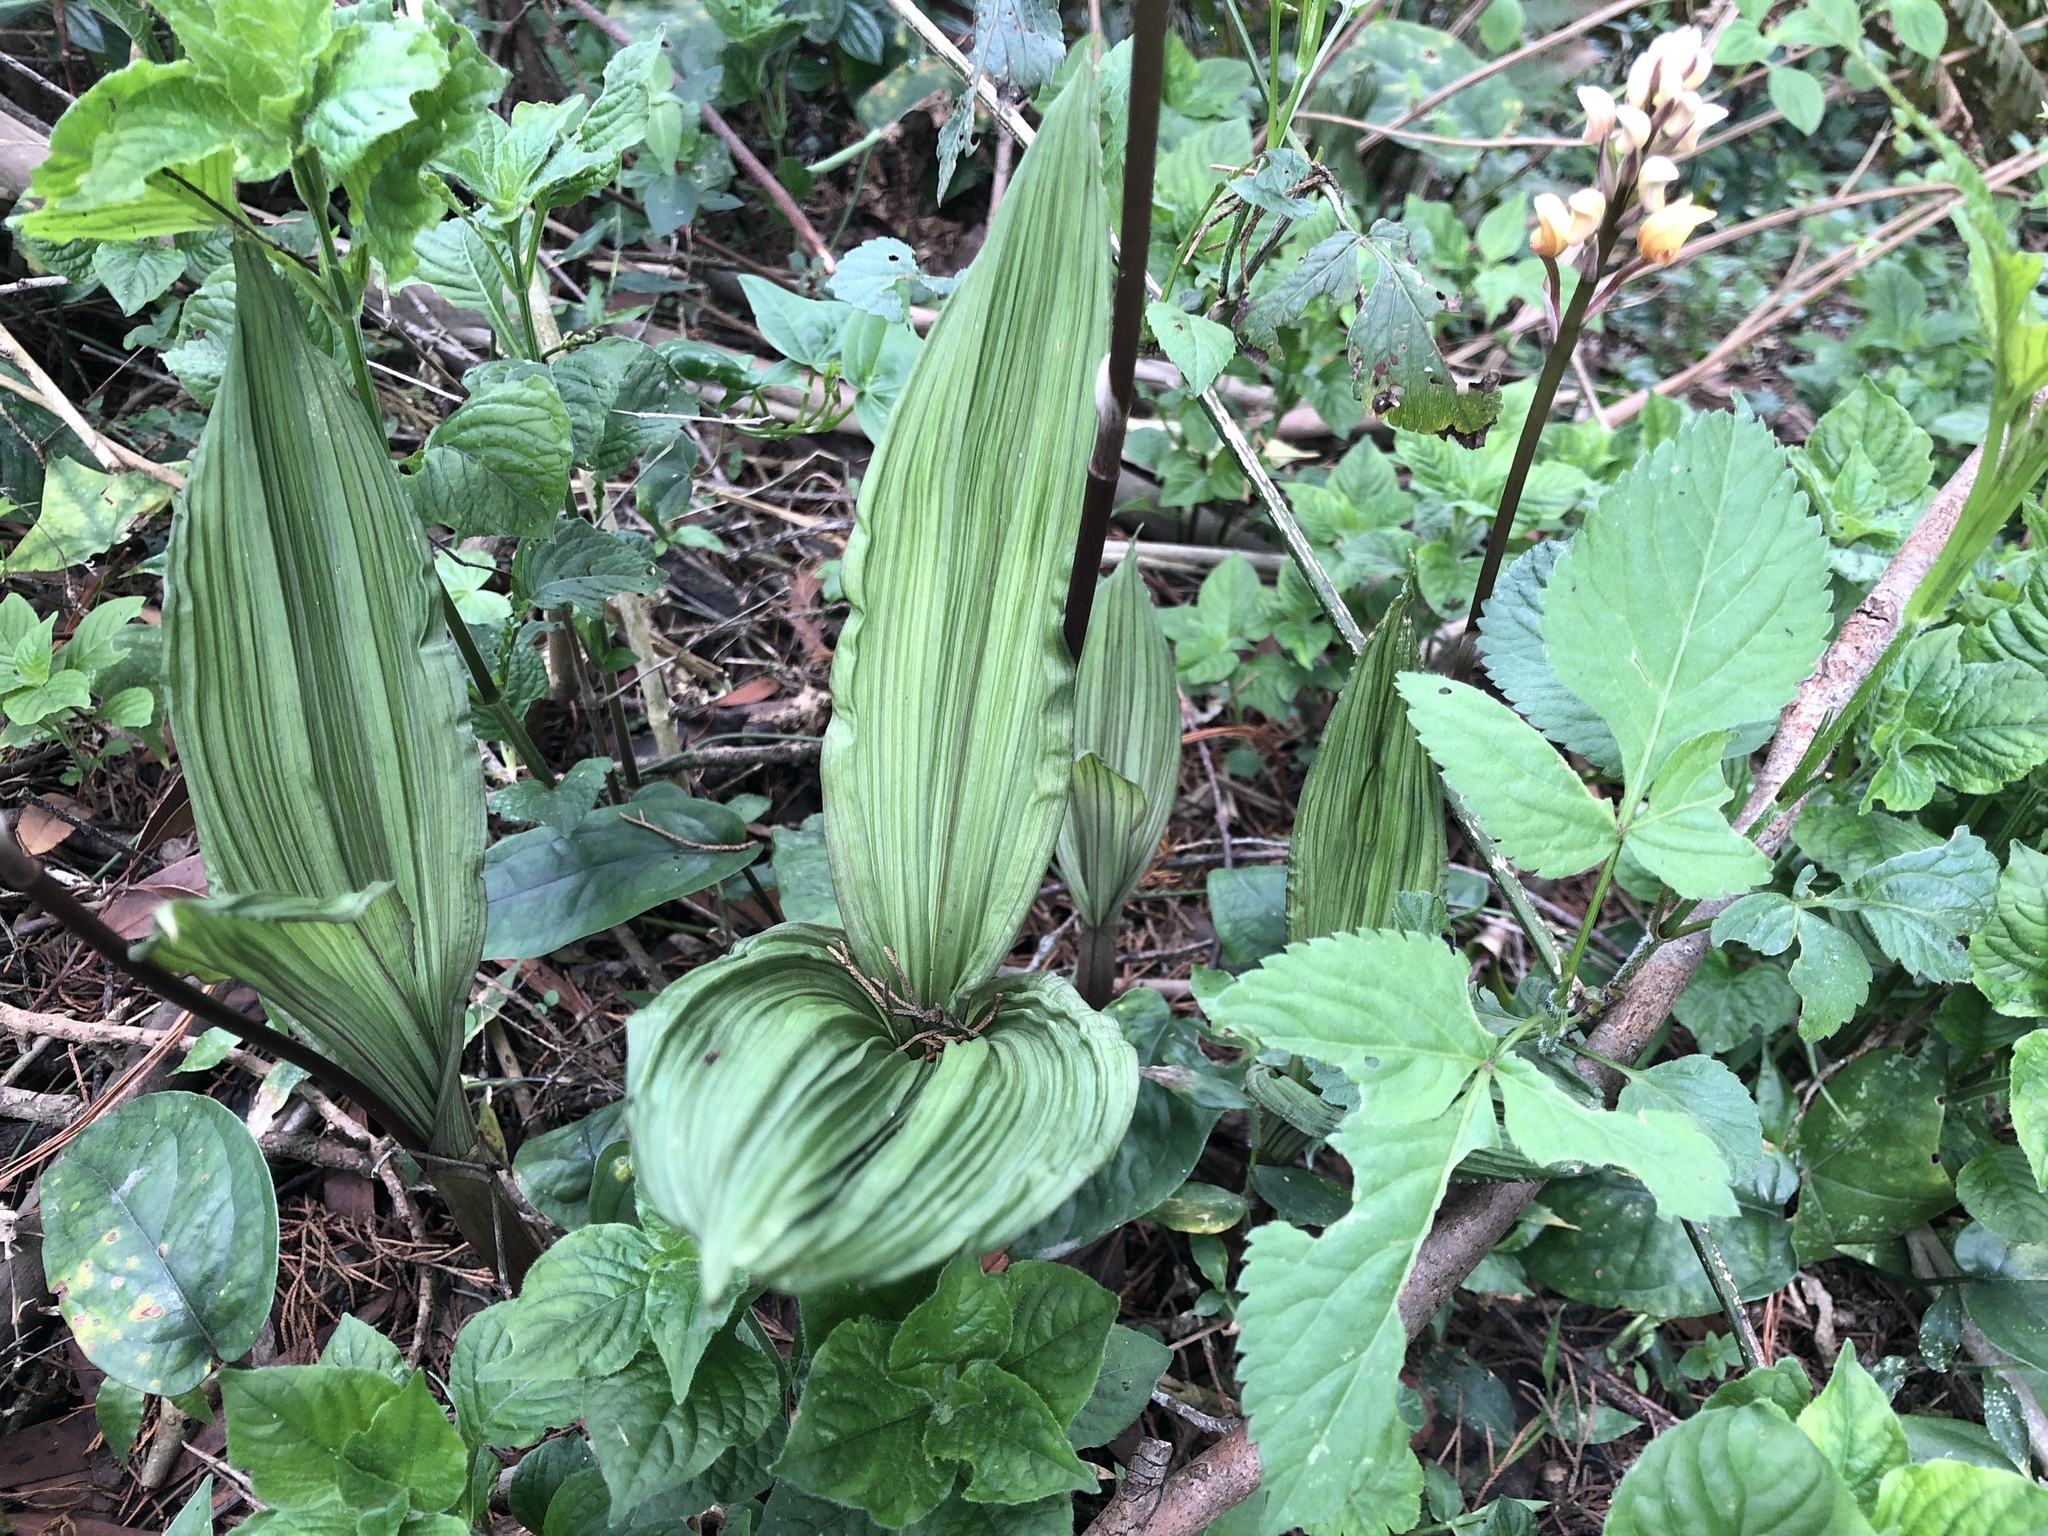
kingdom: Plantae
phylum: Tracheophyta
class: Liliopsida
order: Asparagales
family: Orchidaceae
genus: Govenia
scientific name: Govenia matudae
